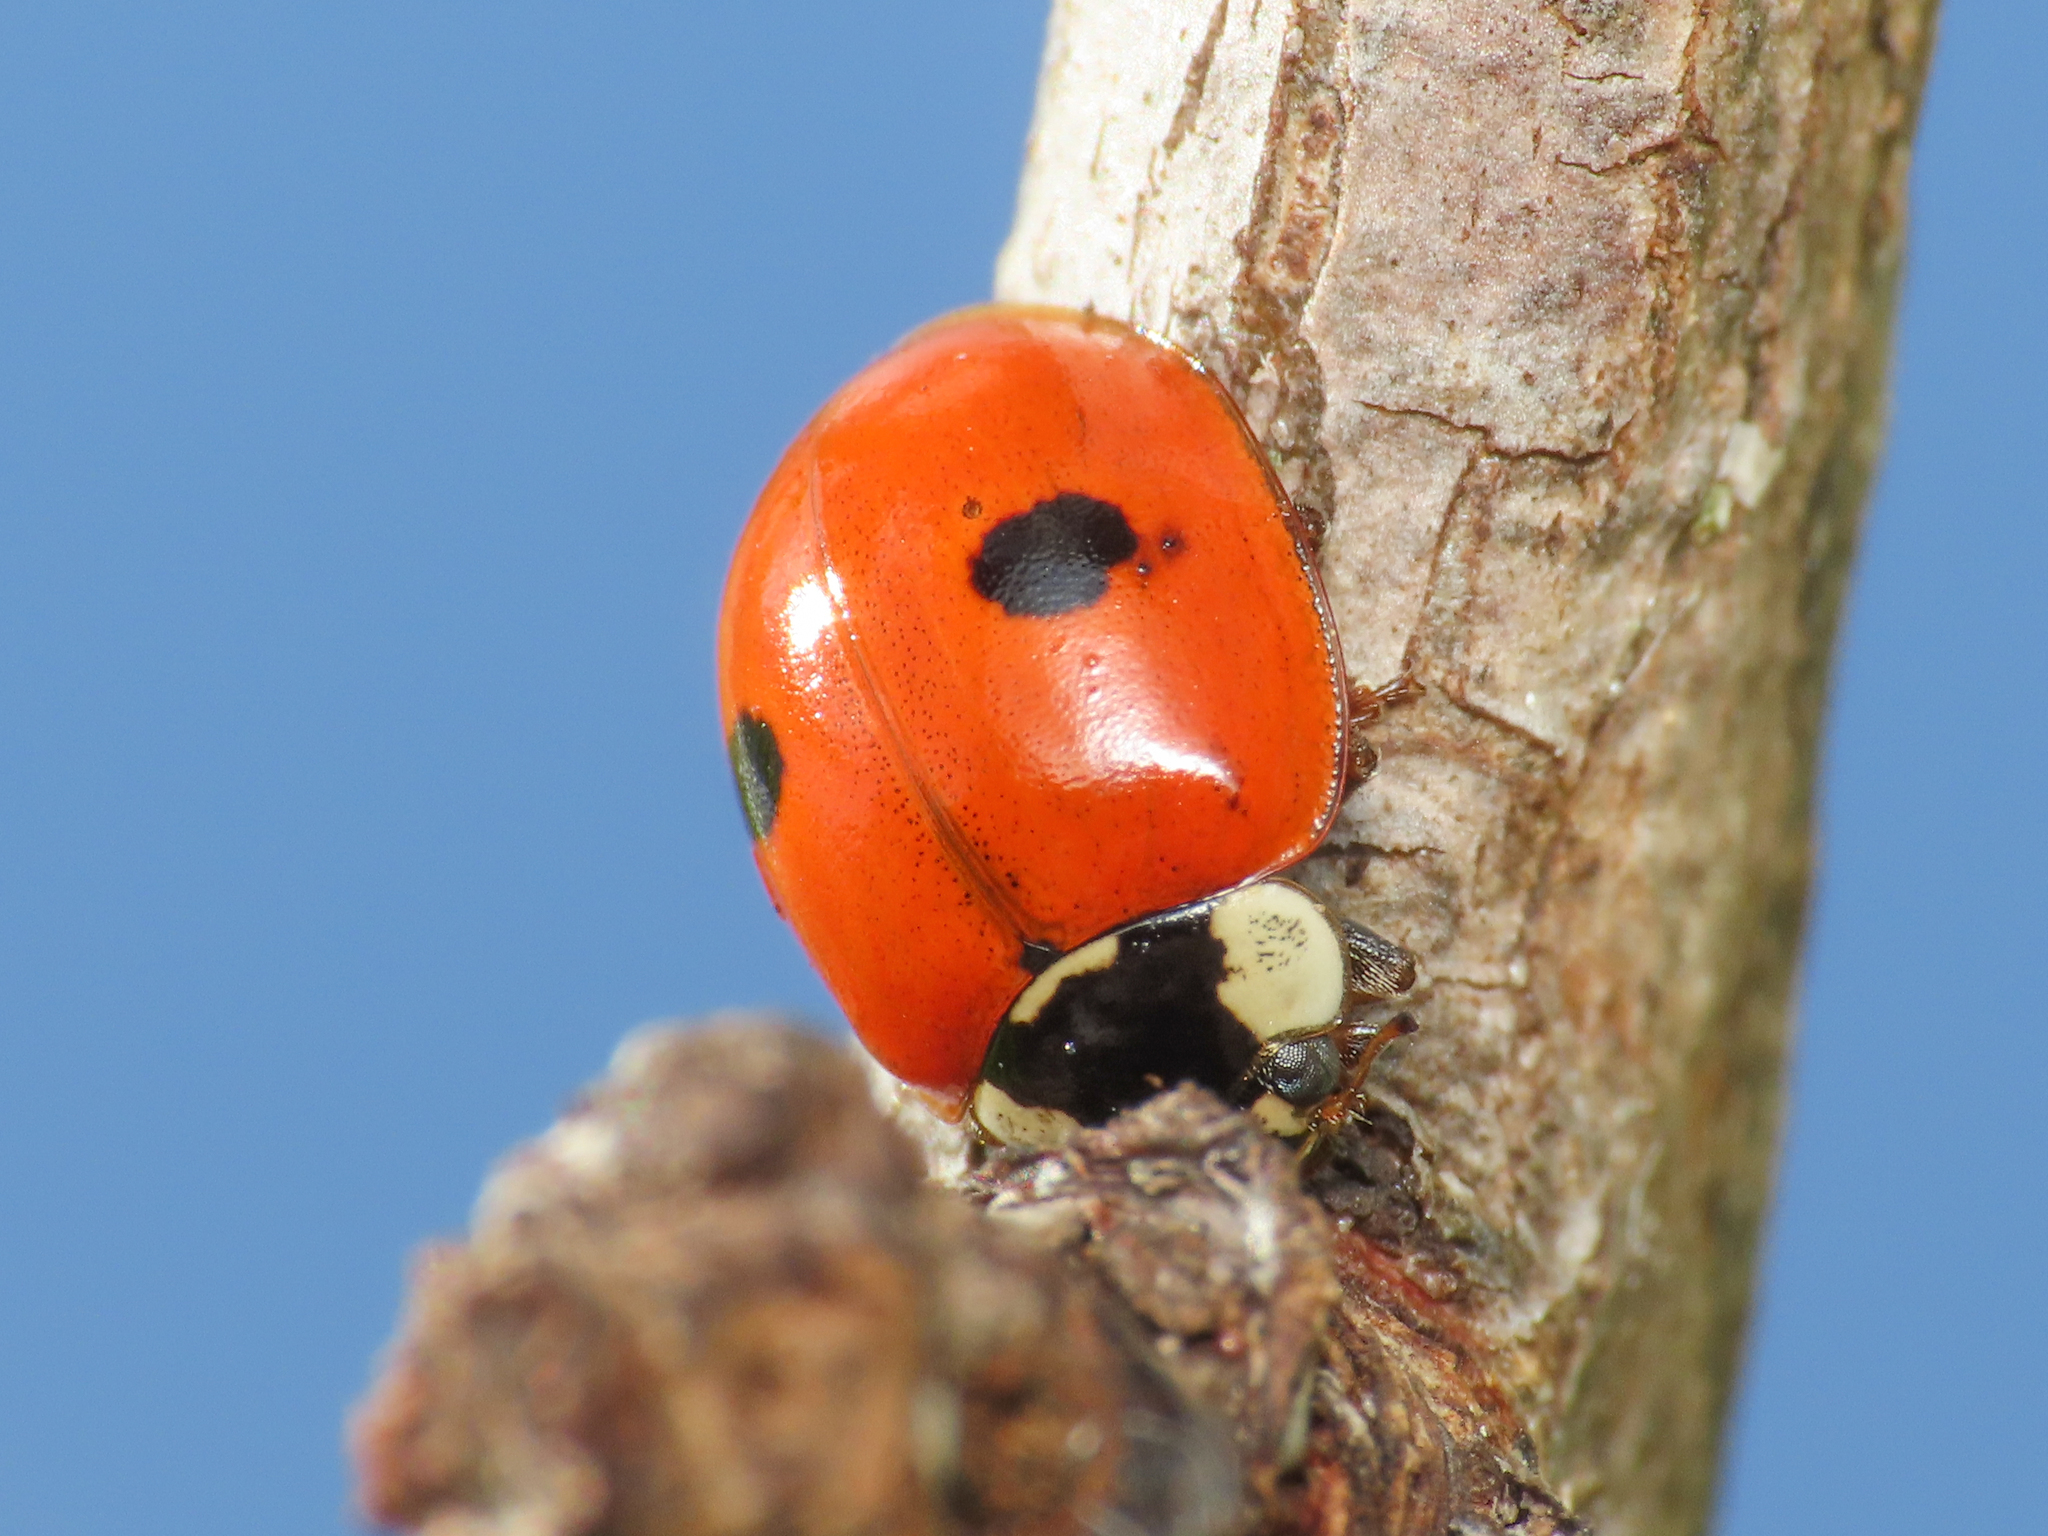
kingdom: Animalia
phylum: Arthropoda
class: Insecta
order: Coleoptera
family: Coccinellidae
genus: Adalia
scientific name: Adalia bipunctata
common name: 2-spot ladybird
